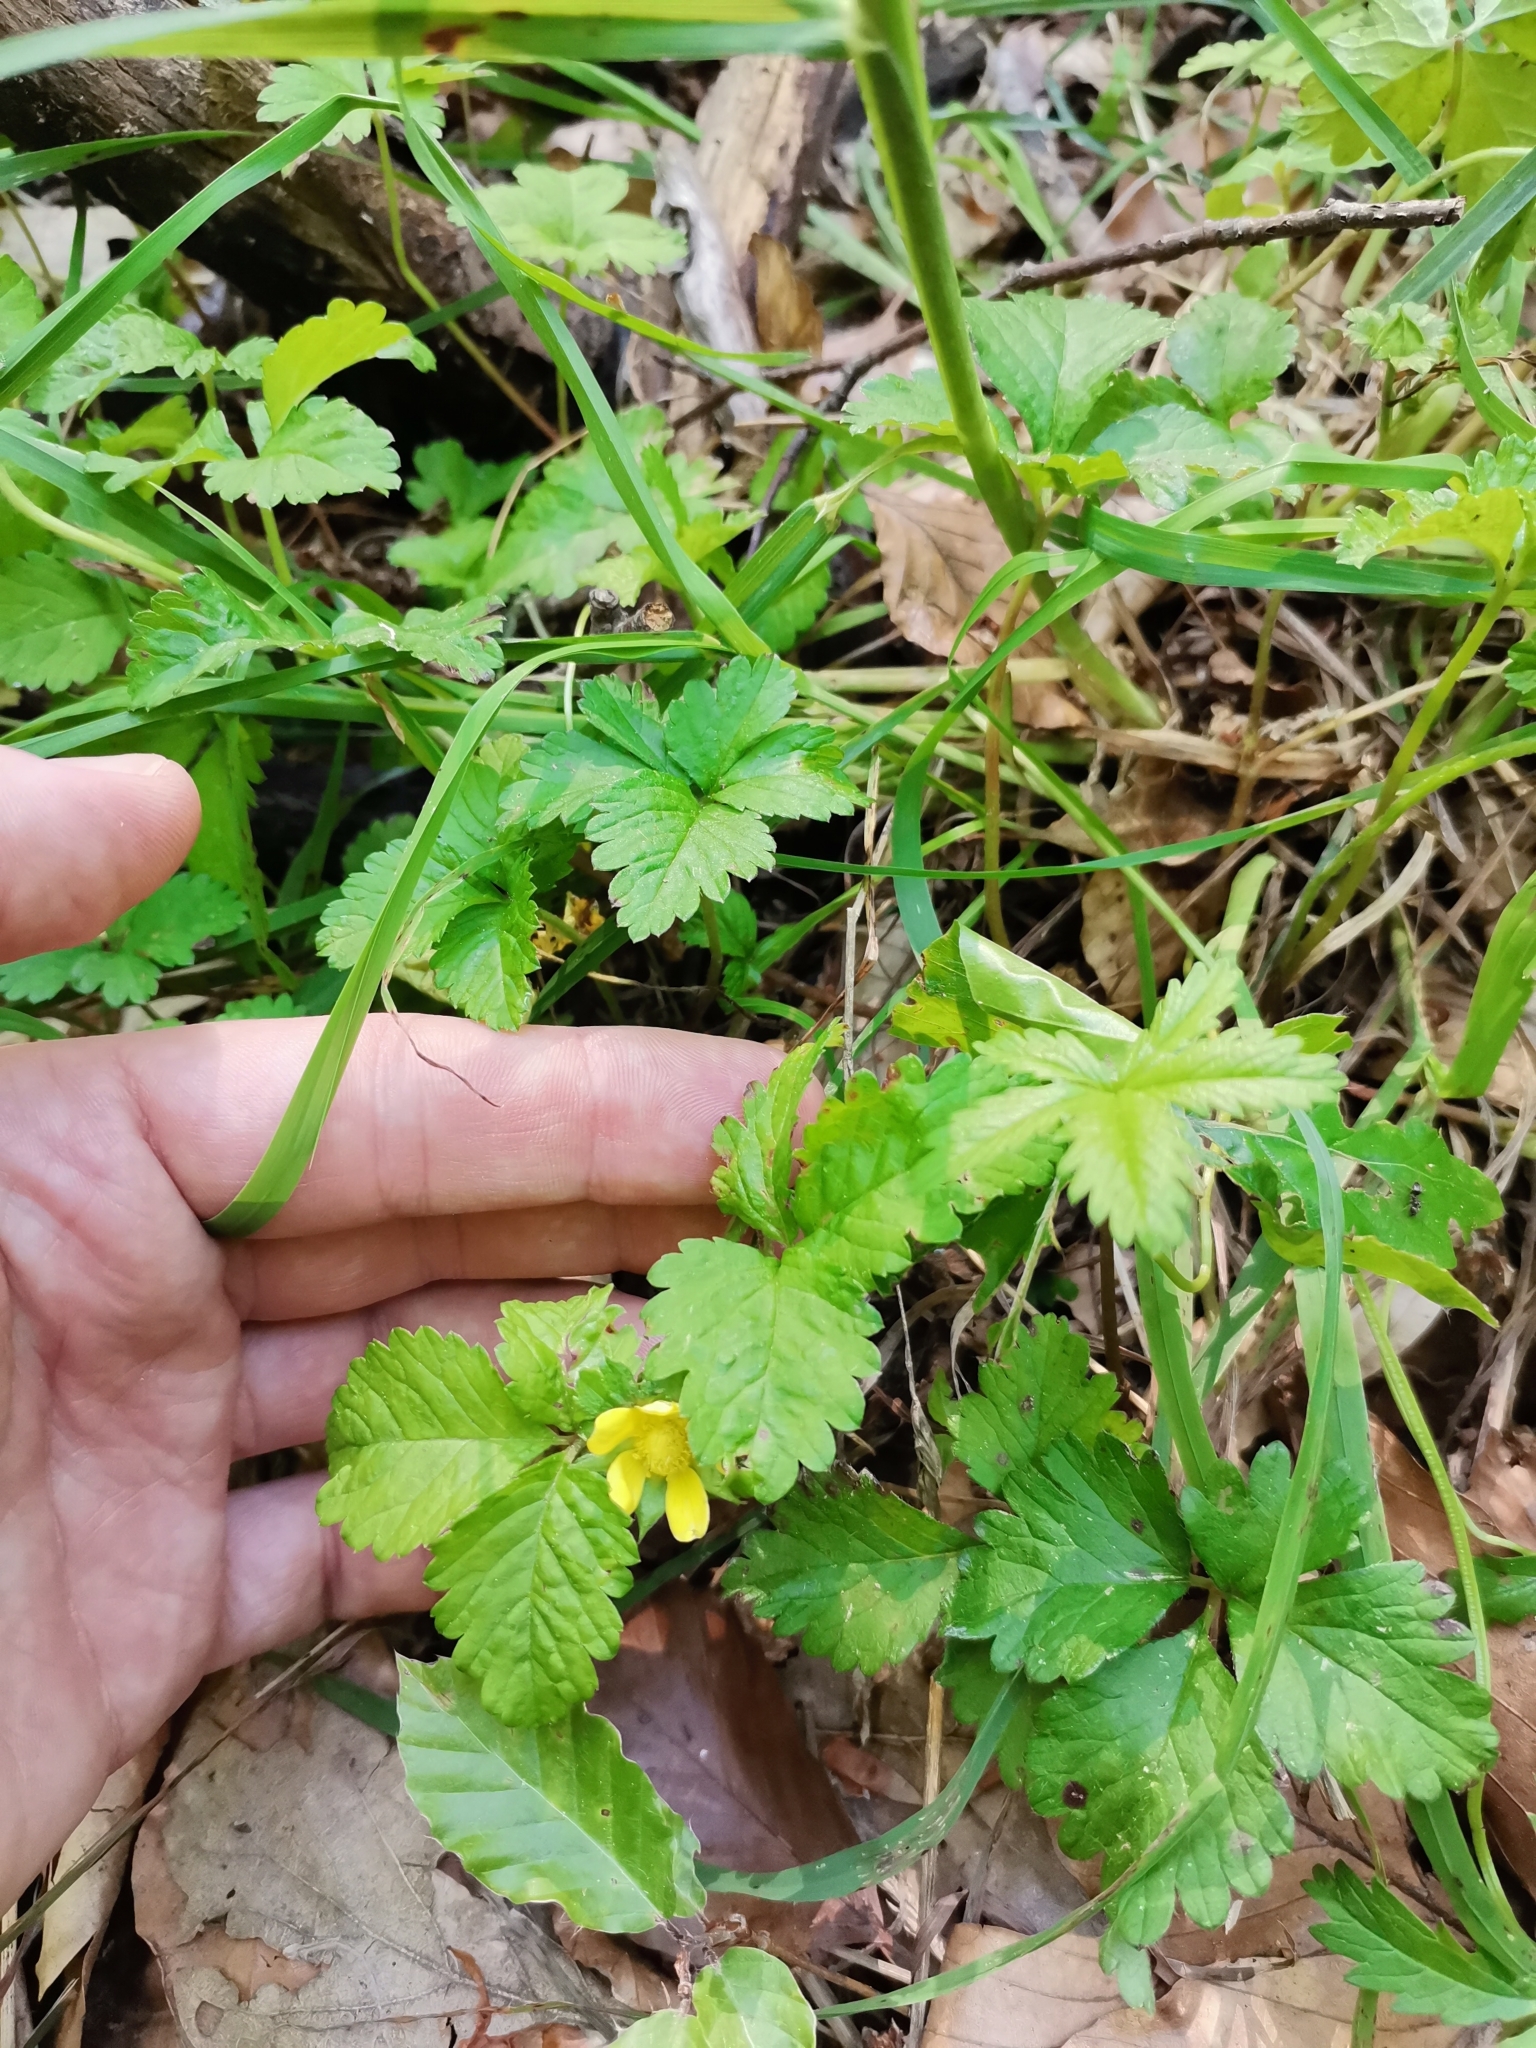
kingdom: Plantae
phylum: Tracheophyta
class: Magnoliopsida
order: Rosales
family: Rosaceae
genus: Potentilla
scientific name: Potentilla indica
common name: Yellow-flowered strawberry
